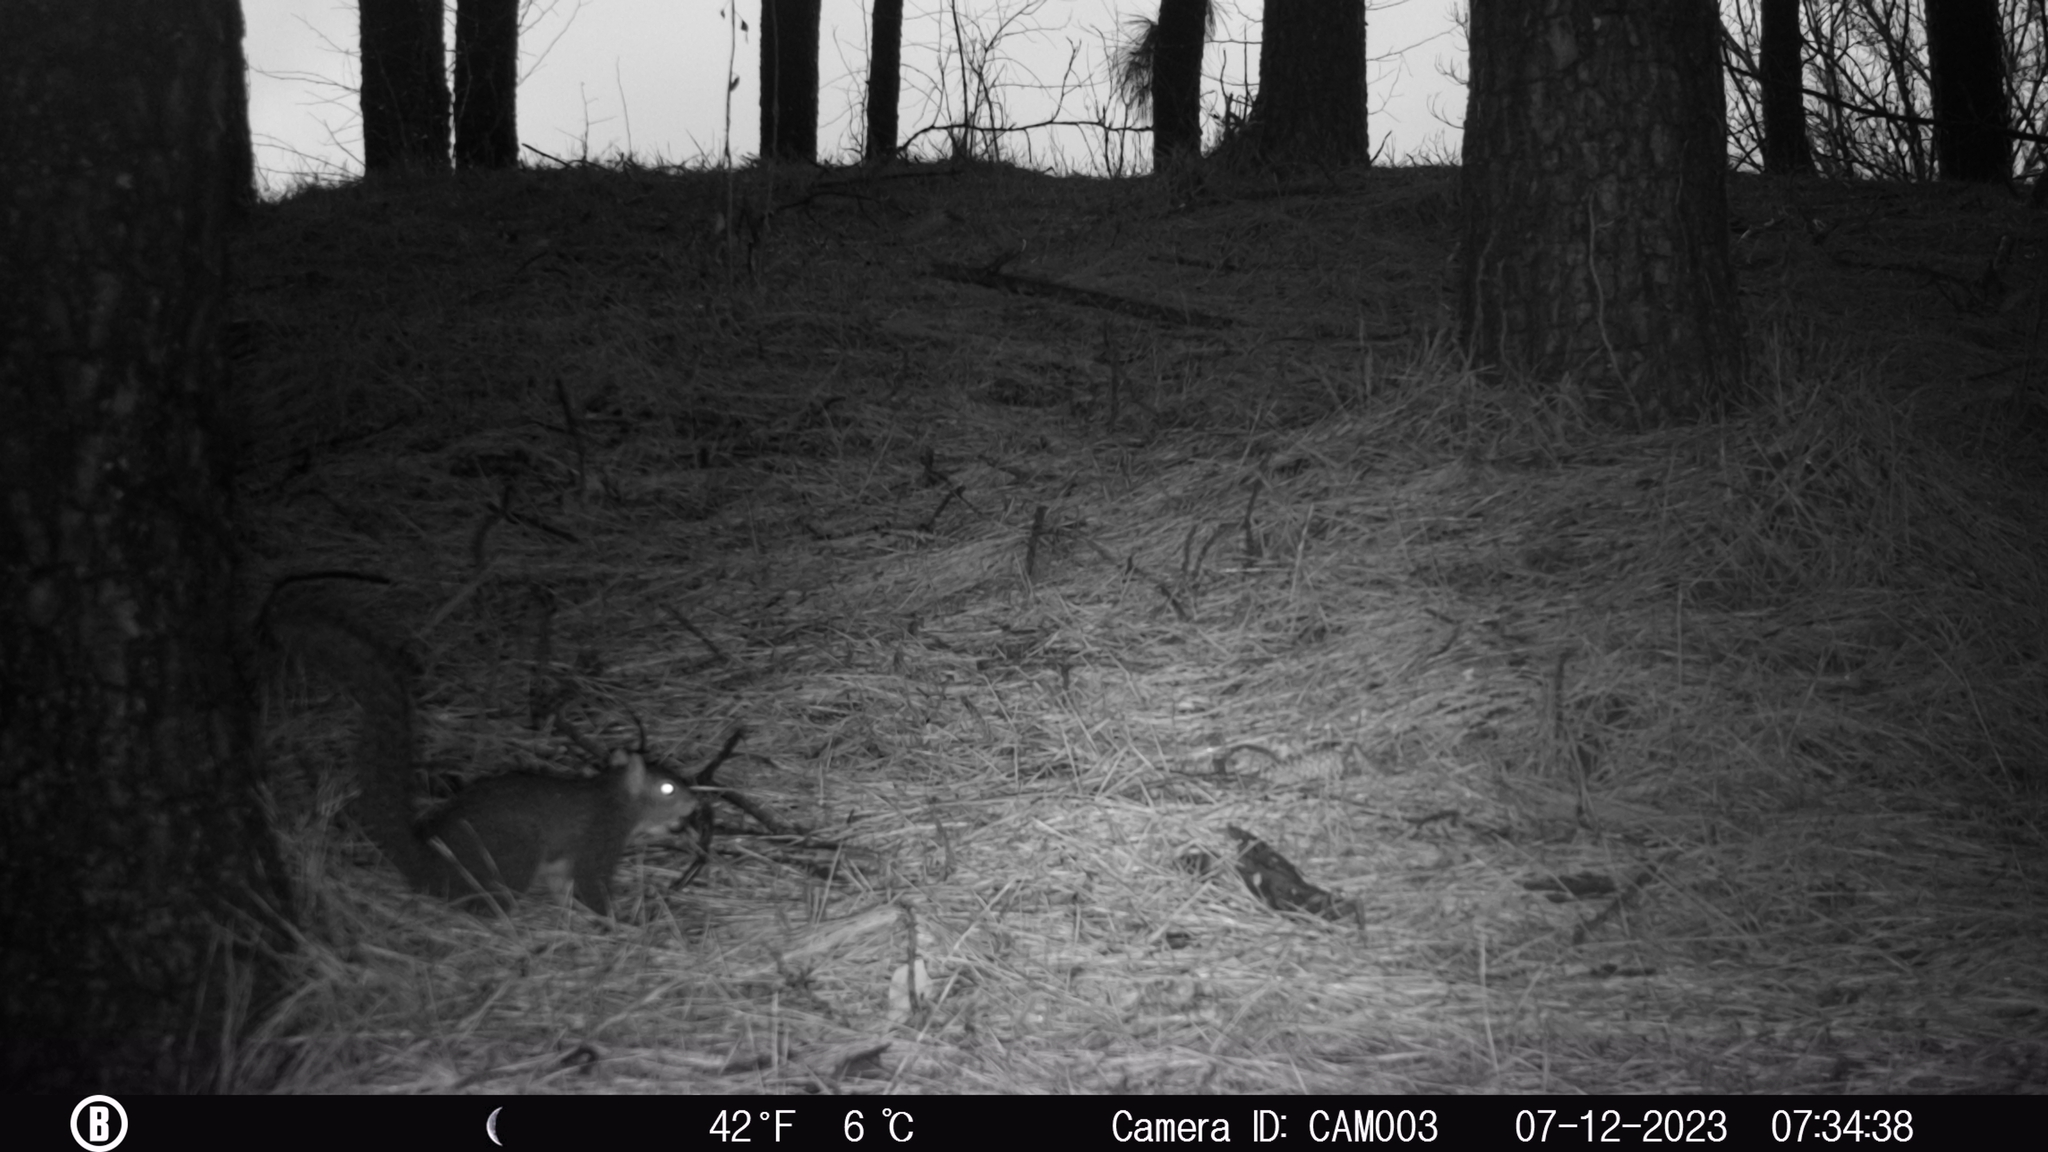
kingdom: Animalia
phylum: Chordata
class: Mammalia
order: Rodentia
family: Sciuridae
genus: Sciurus
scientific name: Sciurus carolinensis
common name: Eastern gray squirrel
